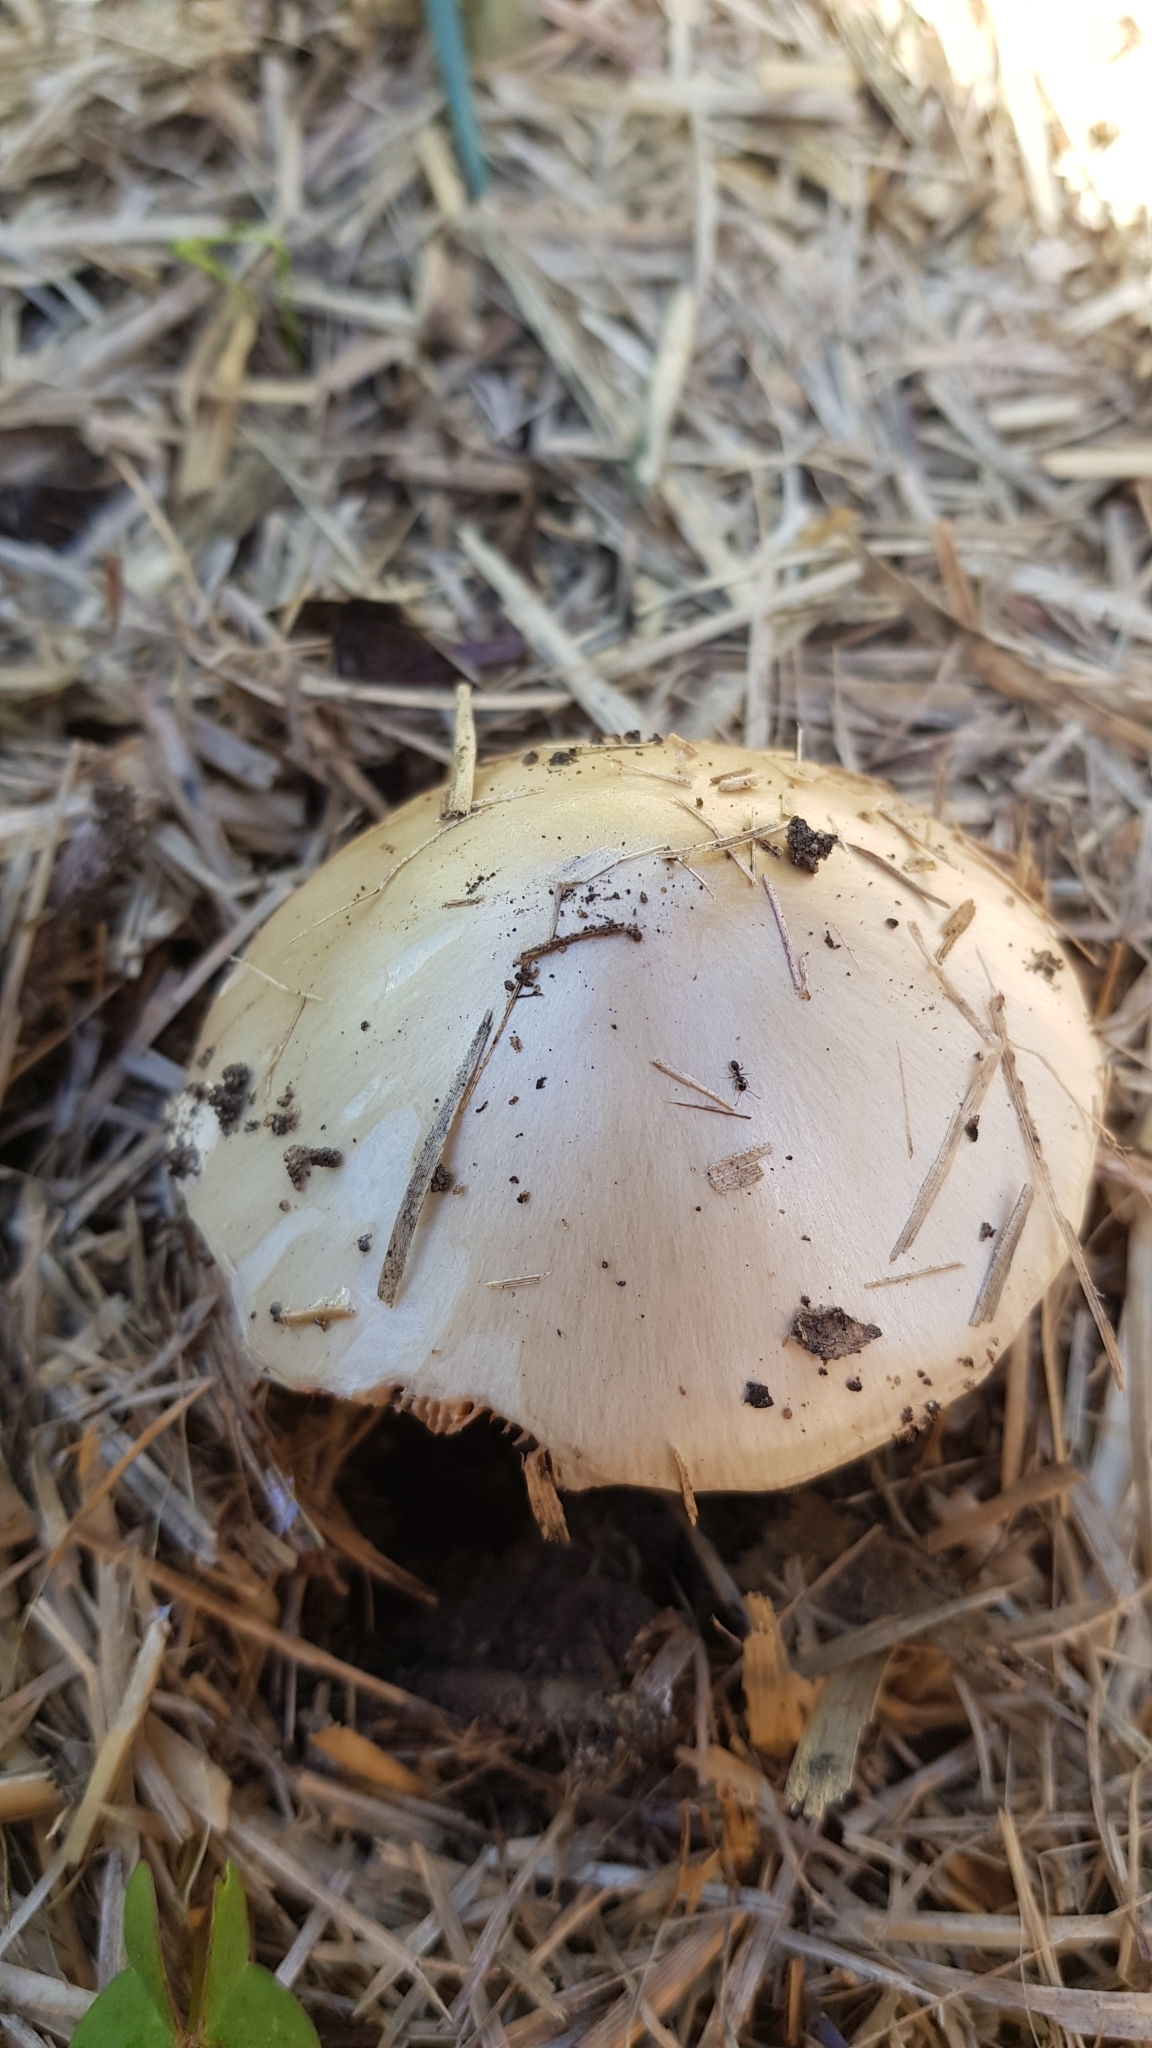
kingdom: Fungi
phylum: Basidiomycota
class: Agaricomycetes
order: Agaricales
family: Pluteaceae
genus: Volvopluteus
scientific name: Volvopluteus gloiocephalus
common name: Stubble rosegill
